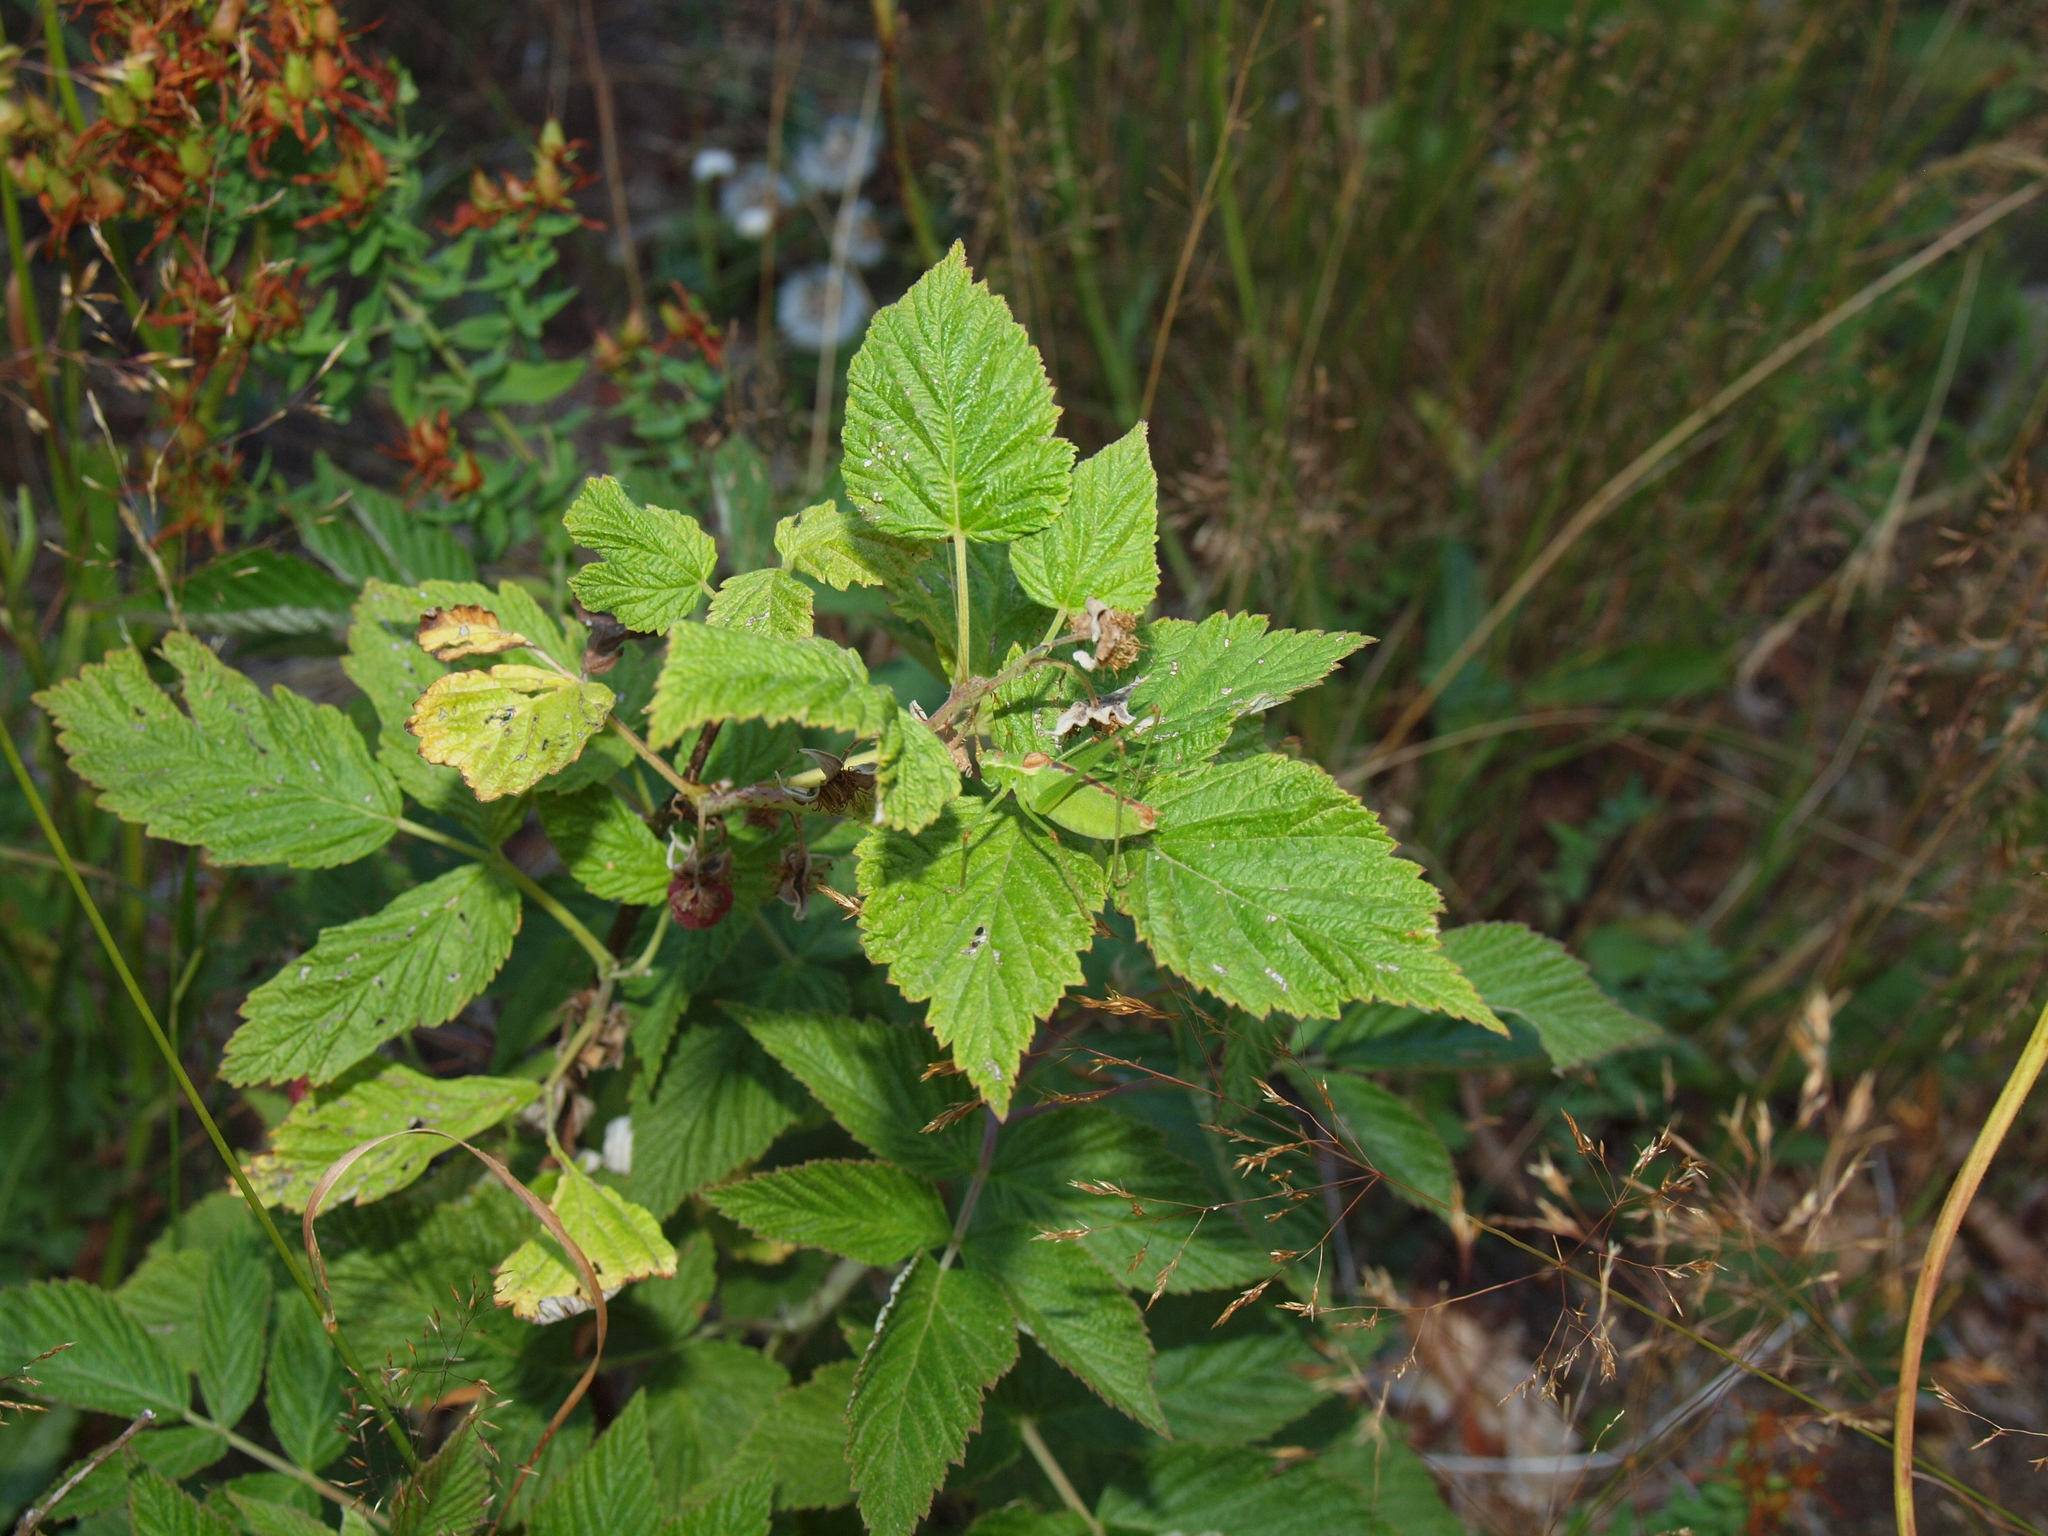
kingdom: Animalia
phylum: Arthropoda
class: Insecta
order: Orthoptera
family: Tettigoniidae
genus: Leptophyes
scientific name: Leptophyes intermedia
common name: Montenegrin speckled bush-cricket
